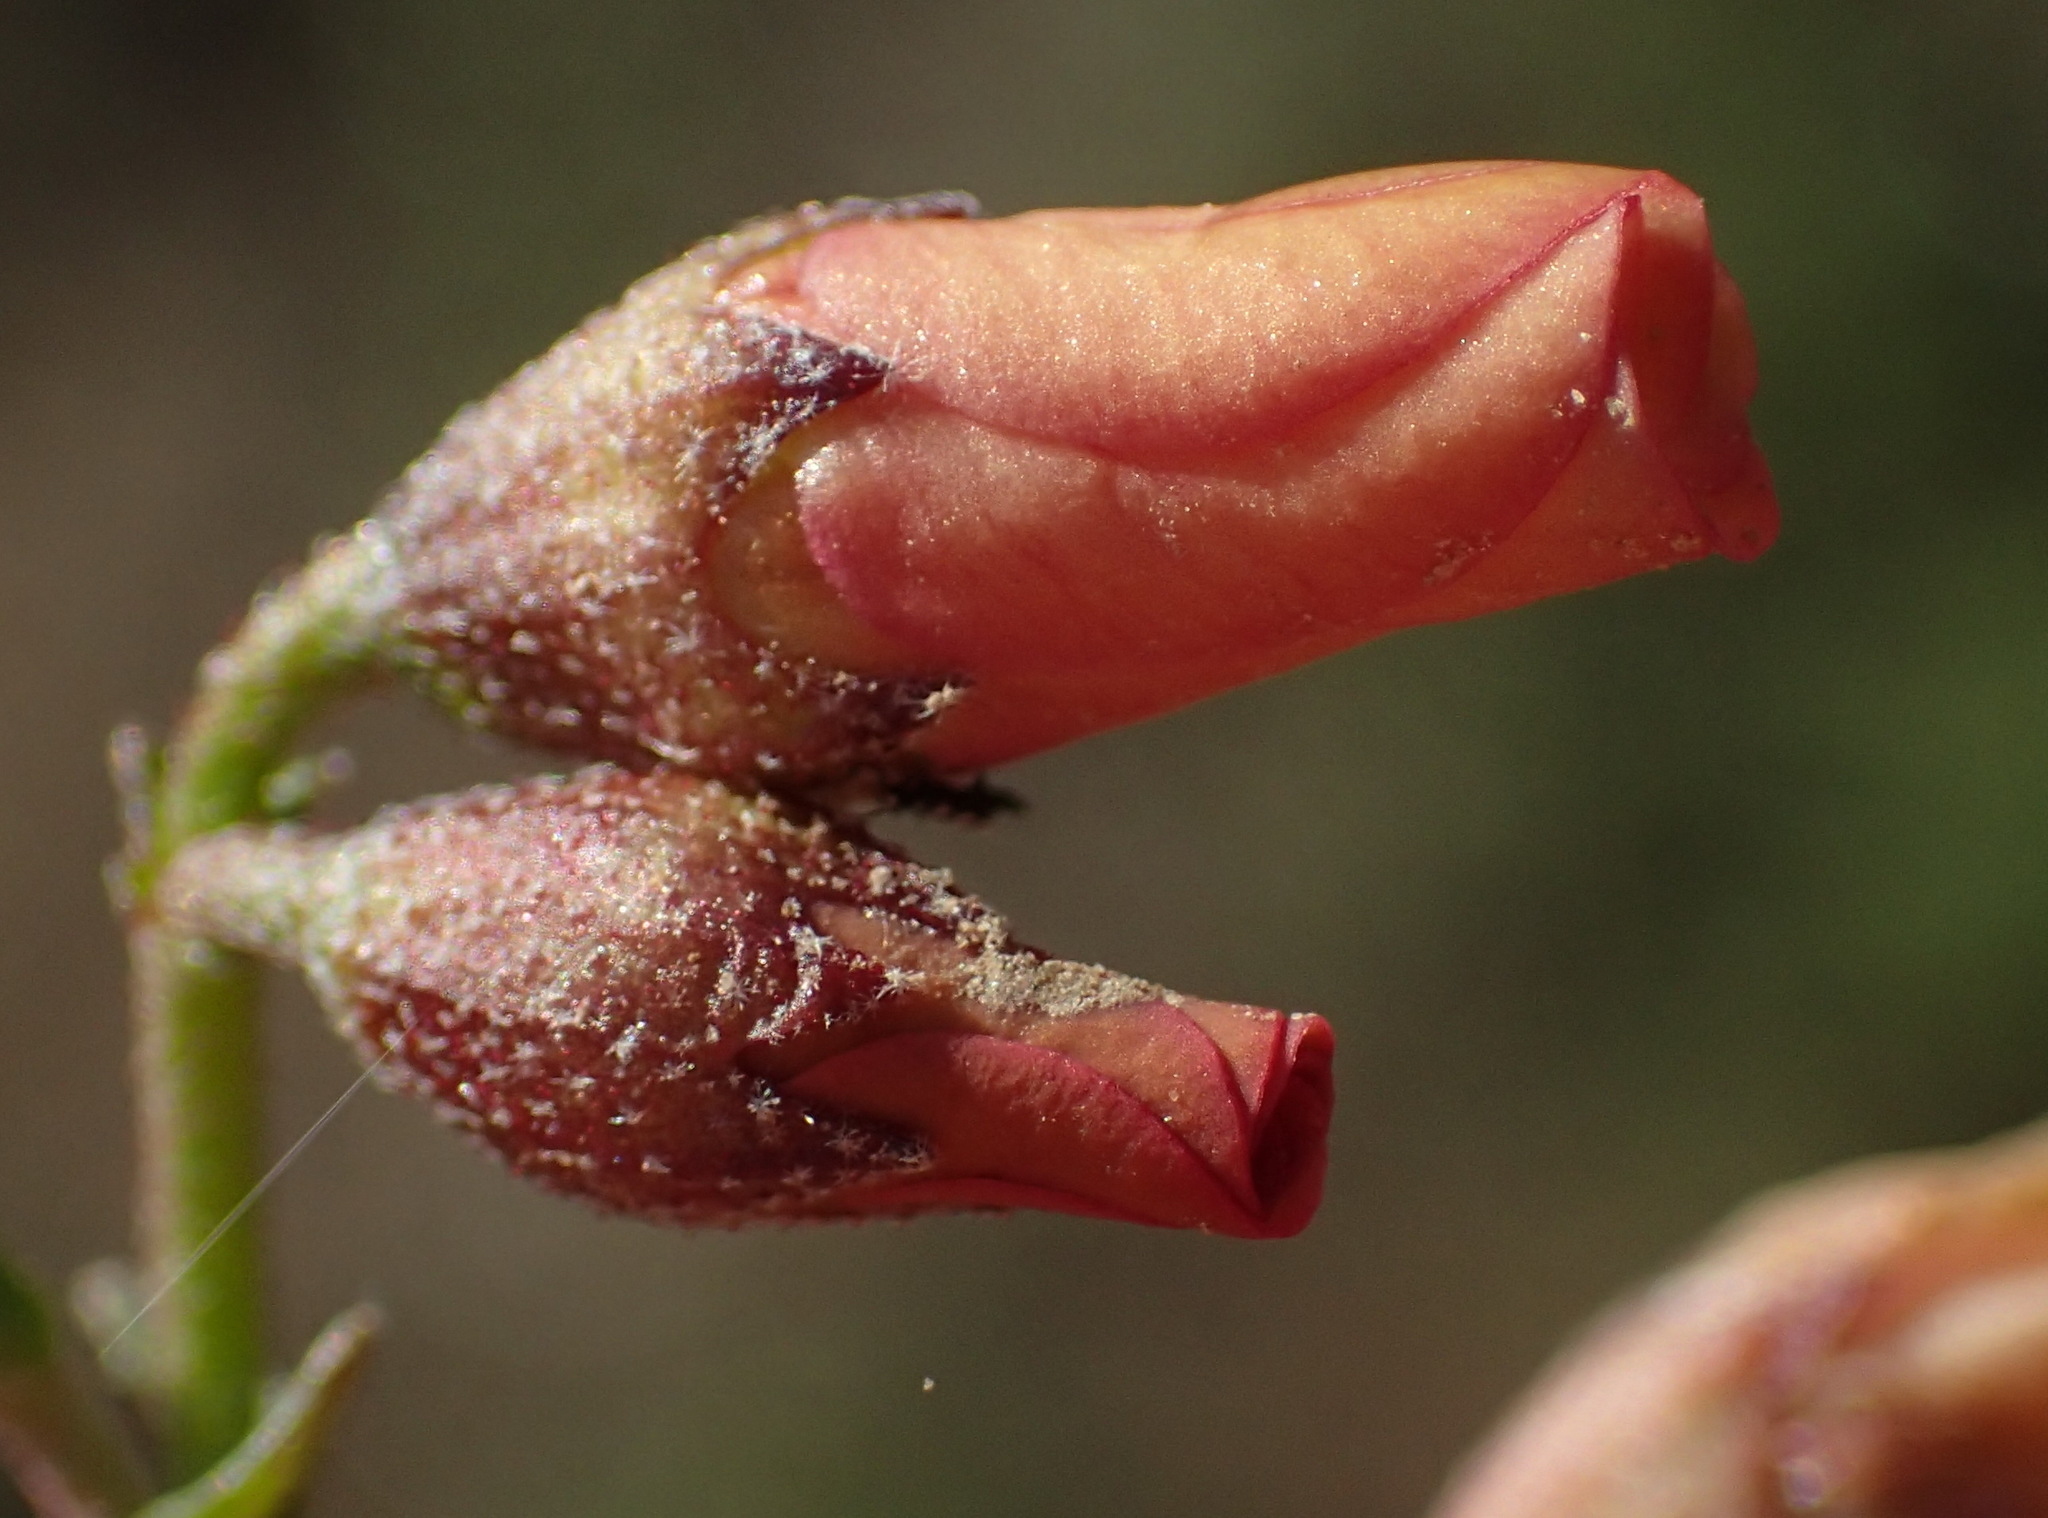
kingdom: Plantae
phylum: Tracheophyta
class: Magnoliopsida
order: Malvales
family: Malvaceae
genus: Hermannia
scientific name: Hermannia pulverata
